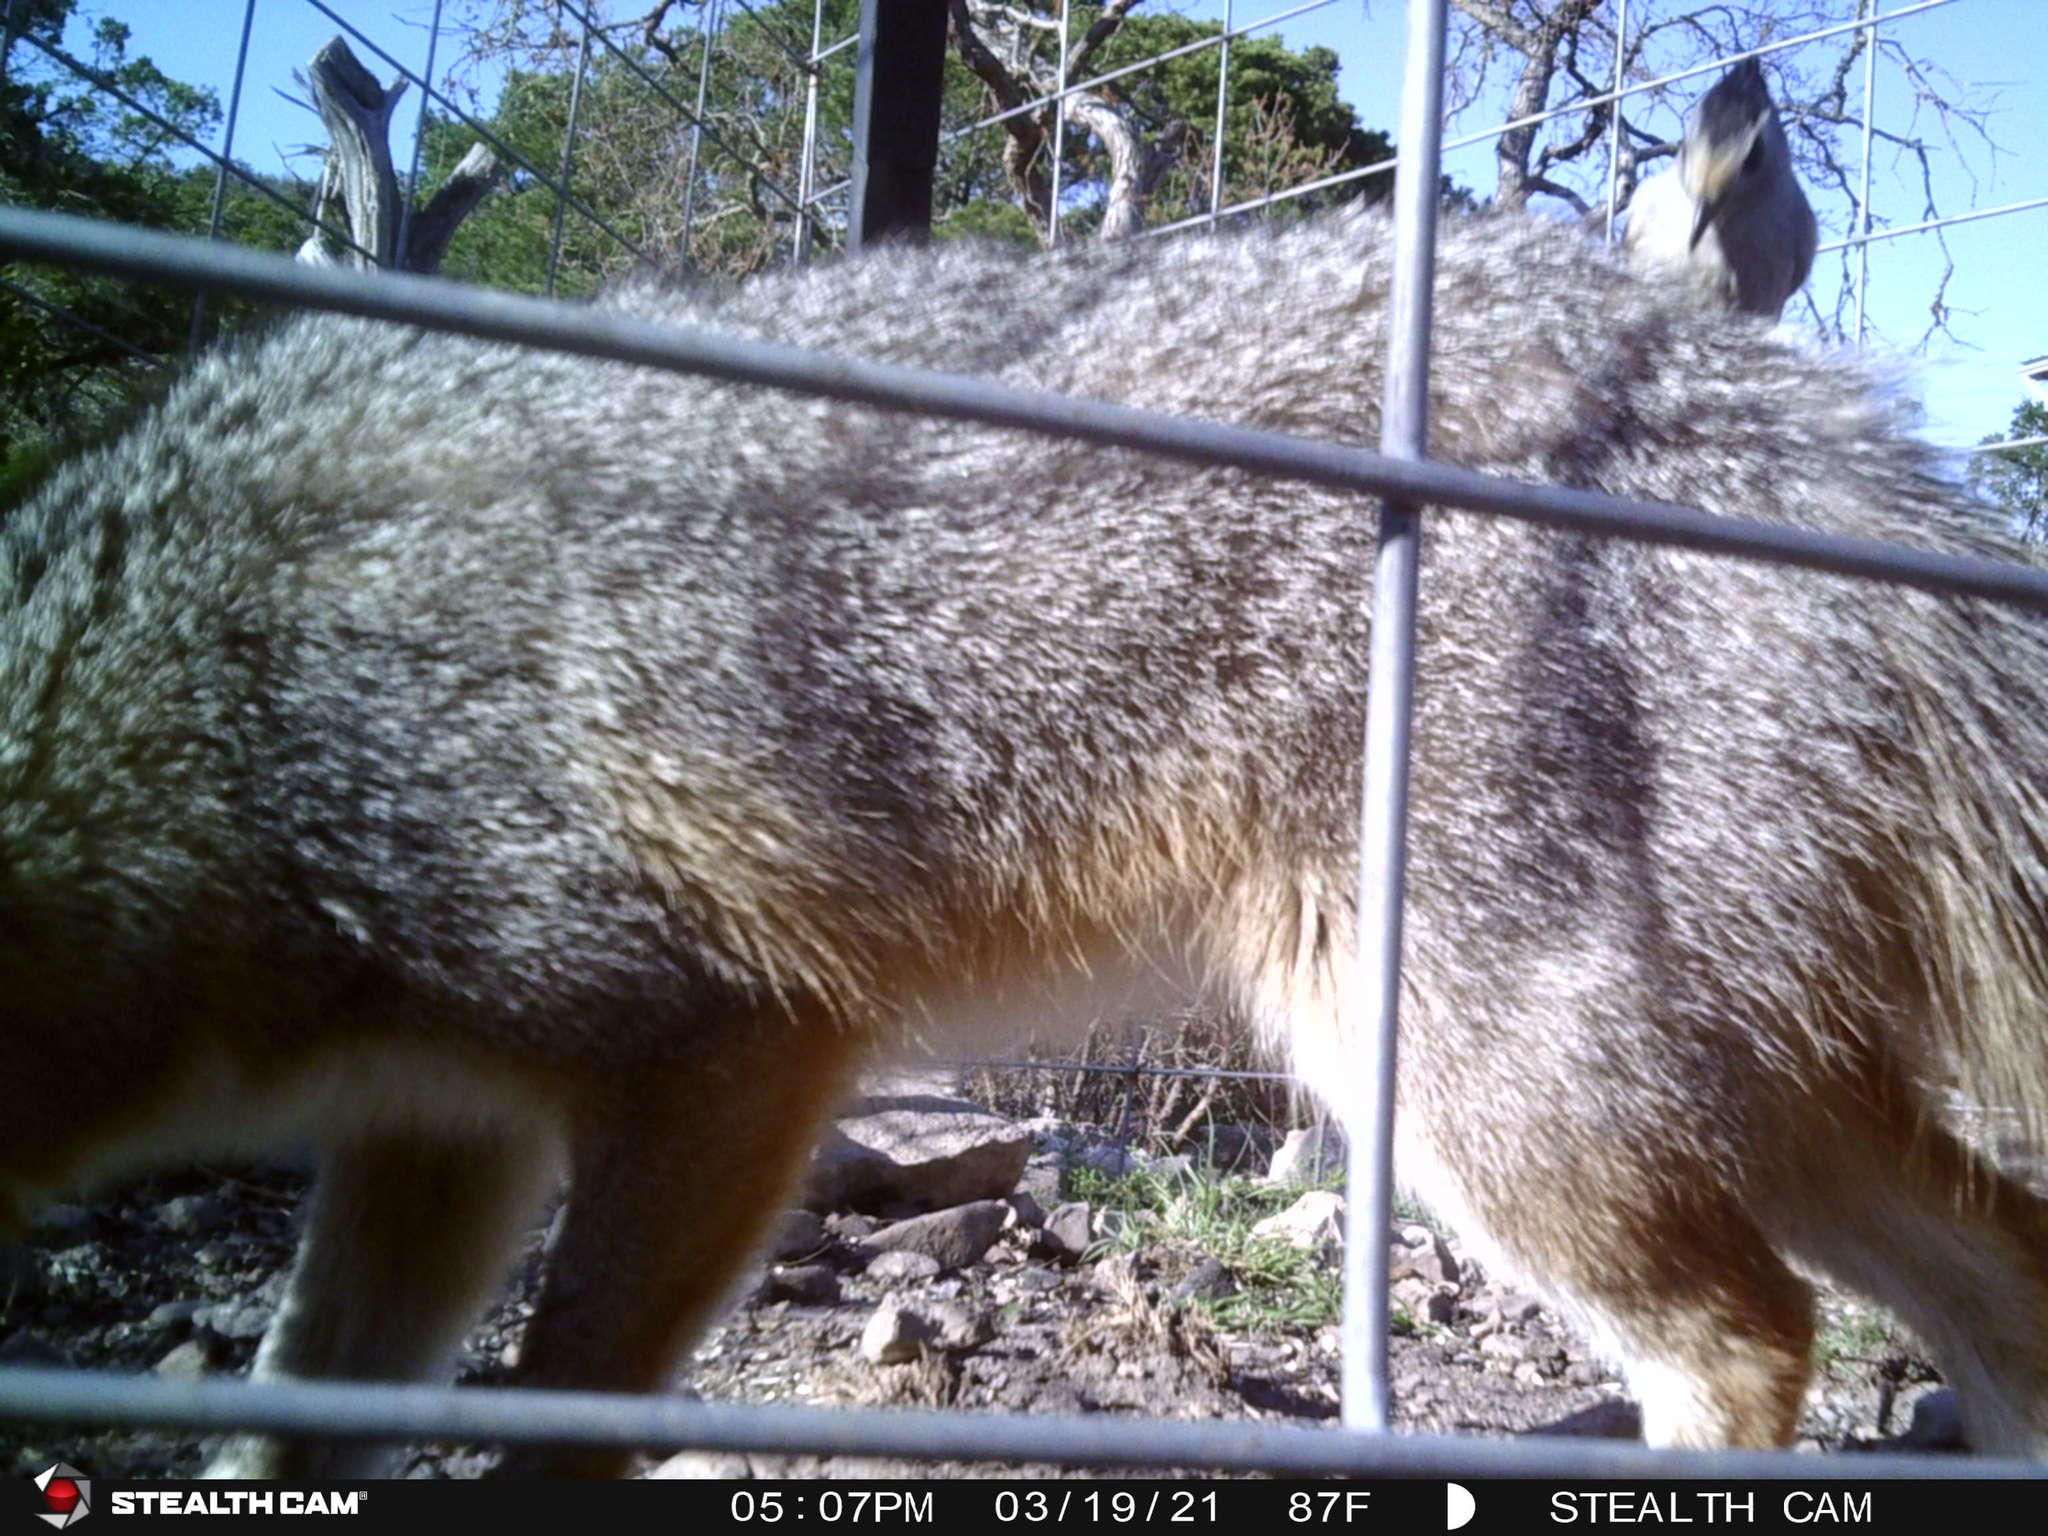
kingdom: Animalia
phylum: Chordata
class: Mammalia
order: Carnivora
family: Canidae
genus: Urocyon
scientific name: Urocyon cinereoargenteus
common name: Gray fox
